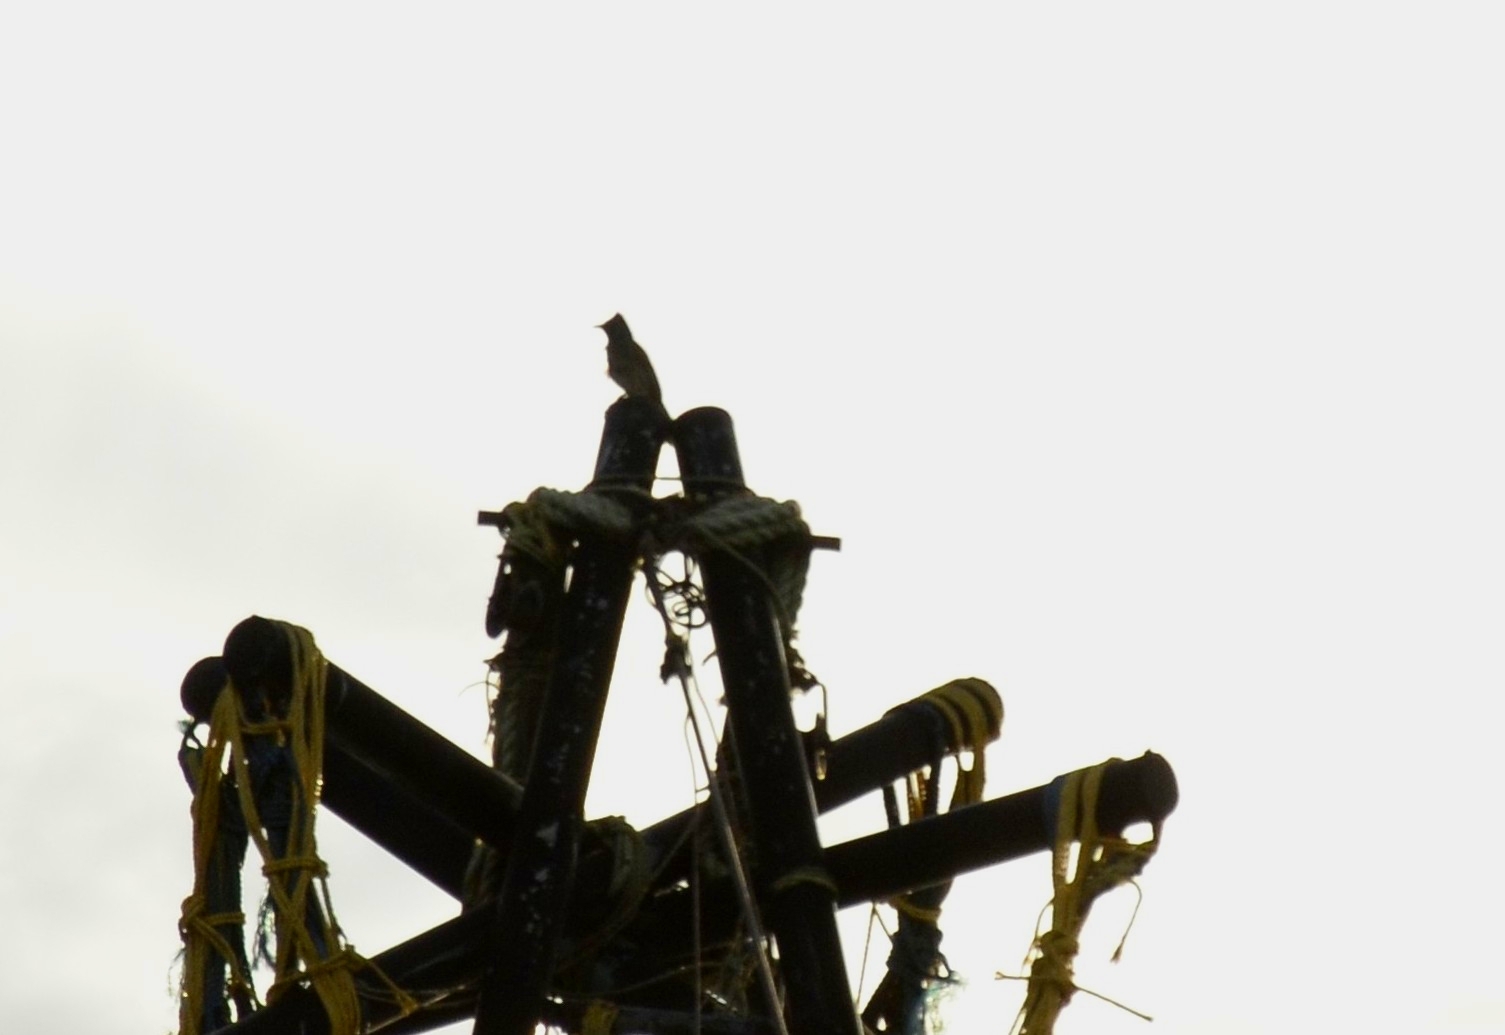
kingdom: Animalia
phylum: Chordata
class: Aves
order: Passeriformes
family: Pycnonotidae
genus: Pycnonotus
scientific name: Pycnonotus cafer
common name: Red-vented bulbul
